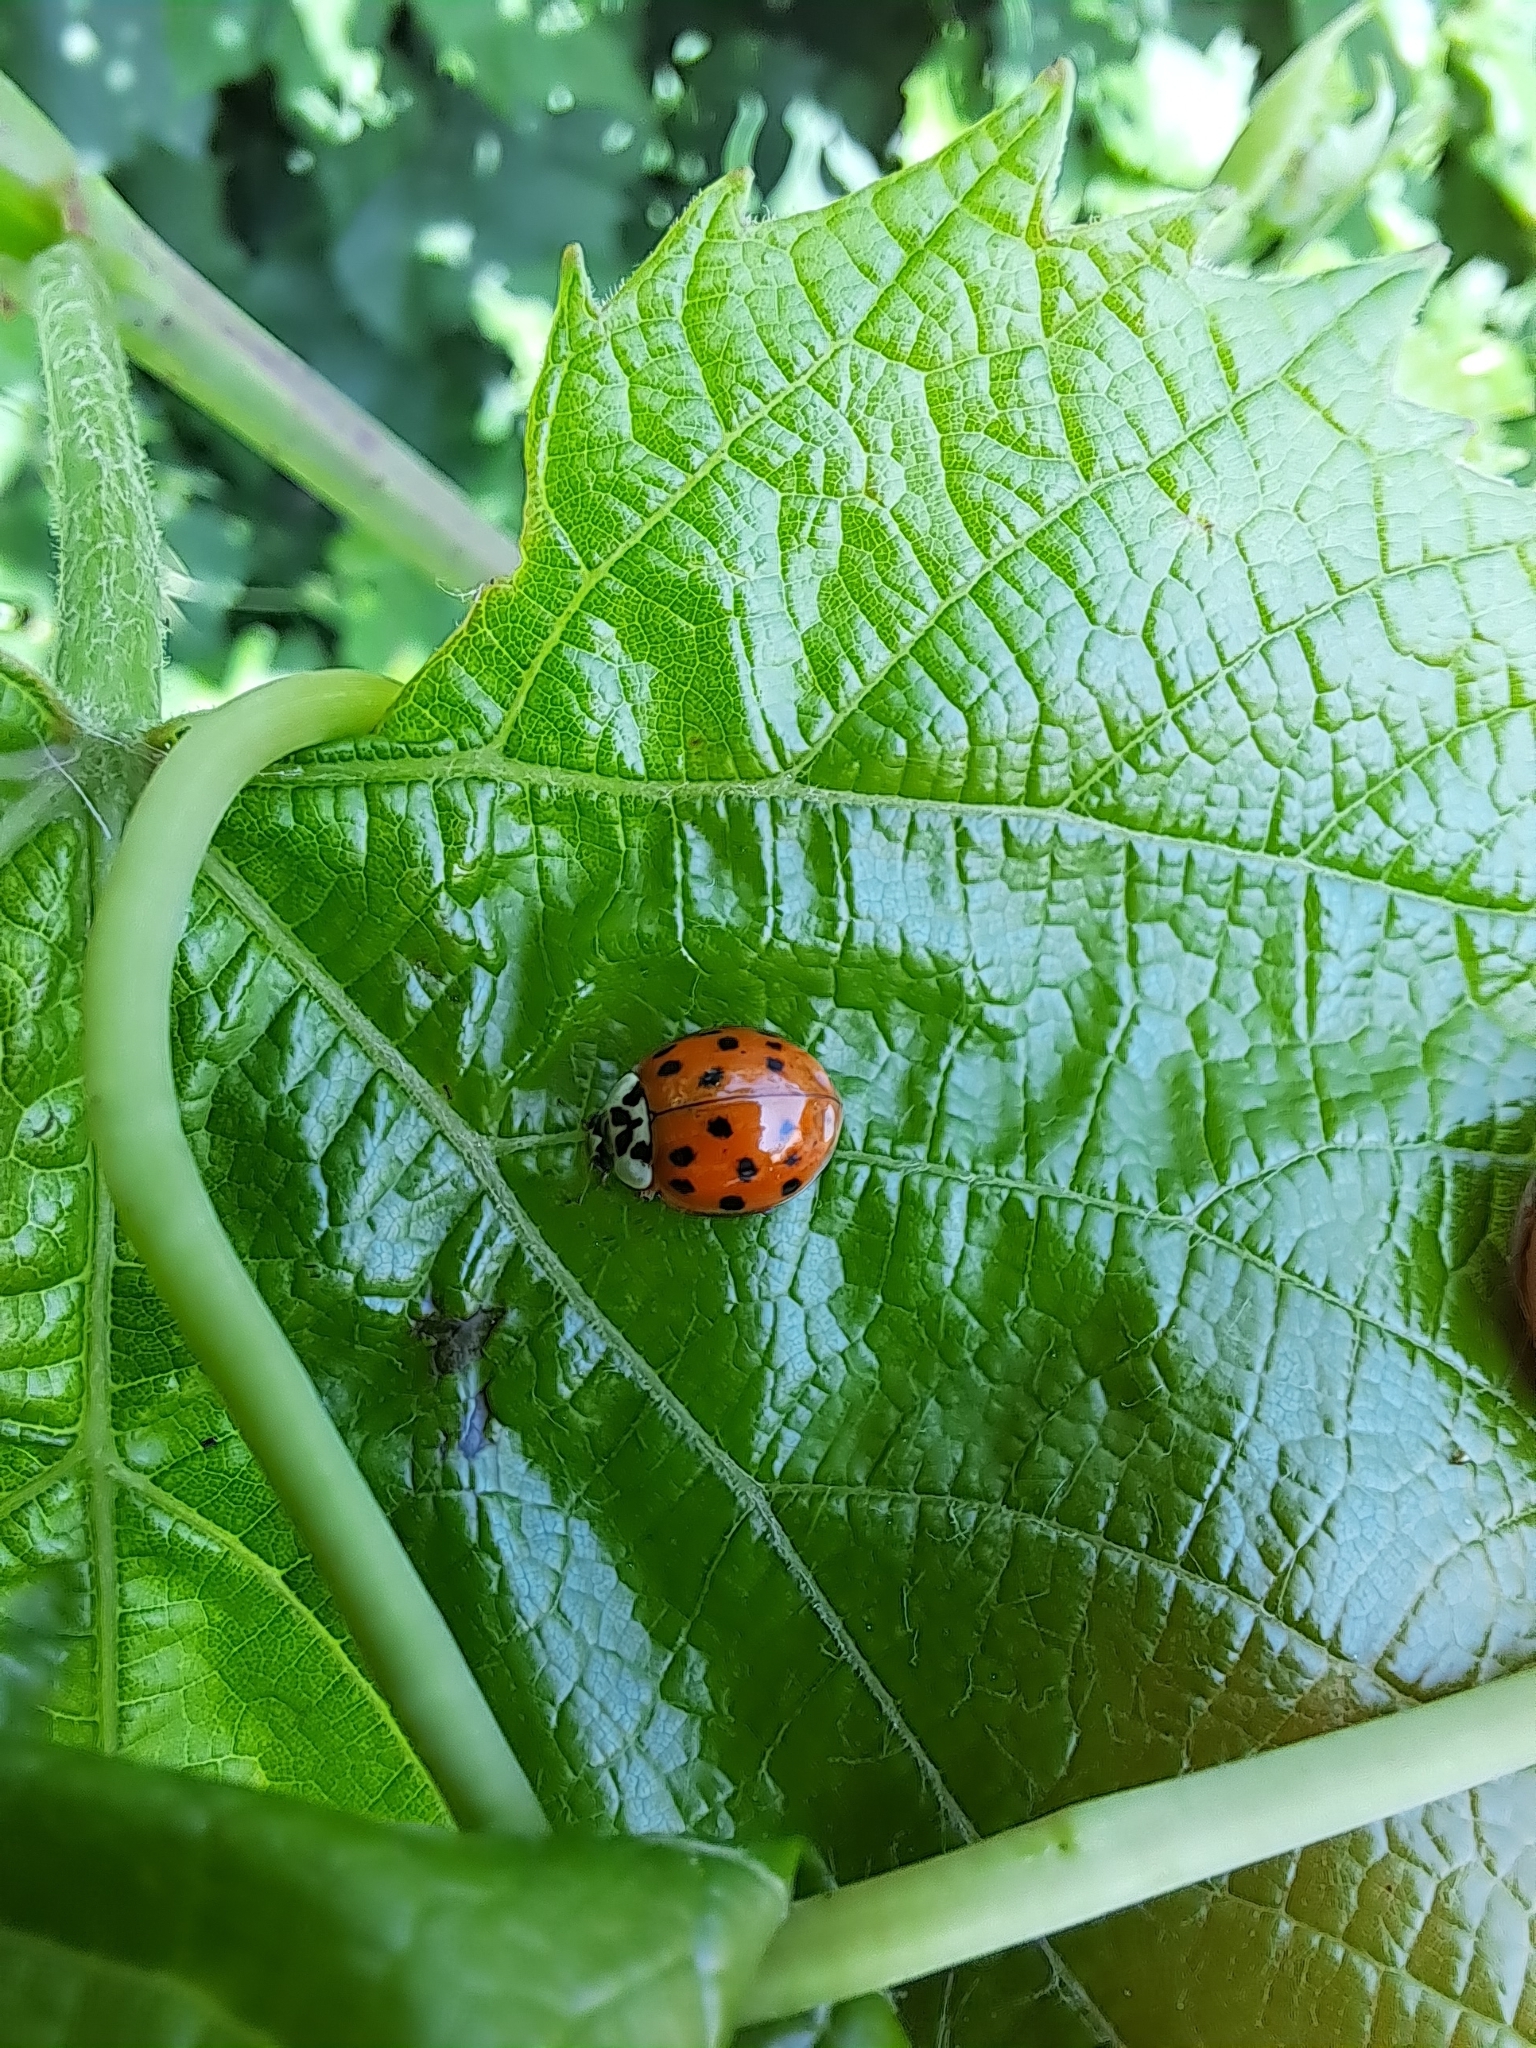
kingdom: Animalia
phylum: Arthropoda
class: Insecta
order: Coleoptera
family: Coccinellidae
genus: Harmonia
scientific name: Harmonia axyridis
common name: Harlequin ladybird
